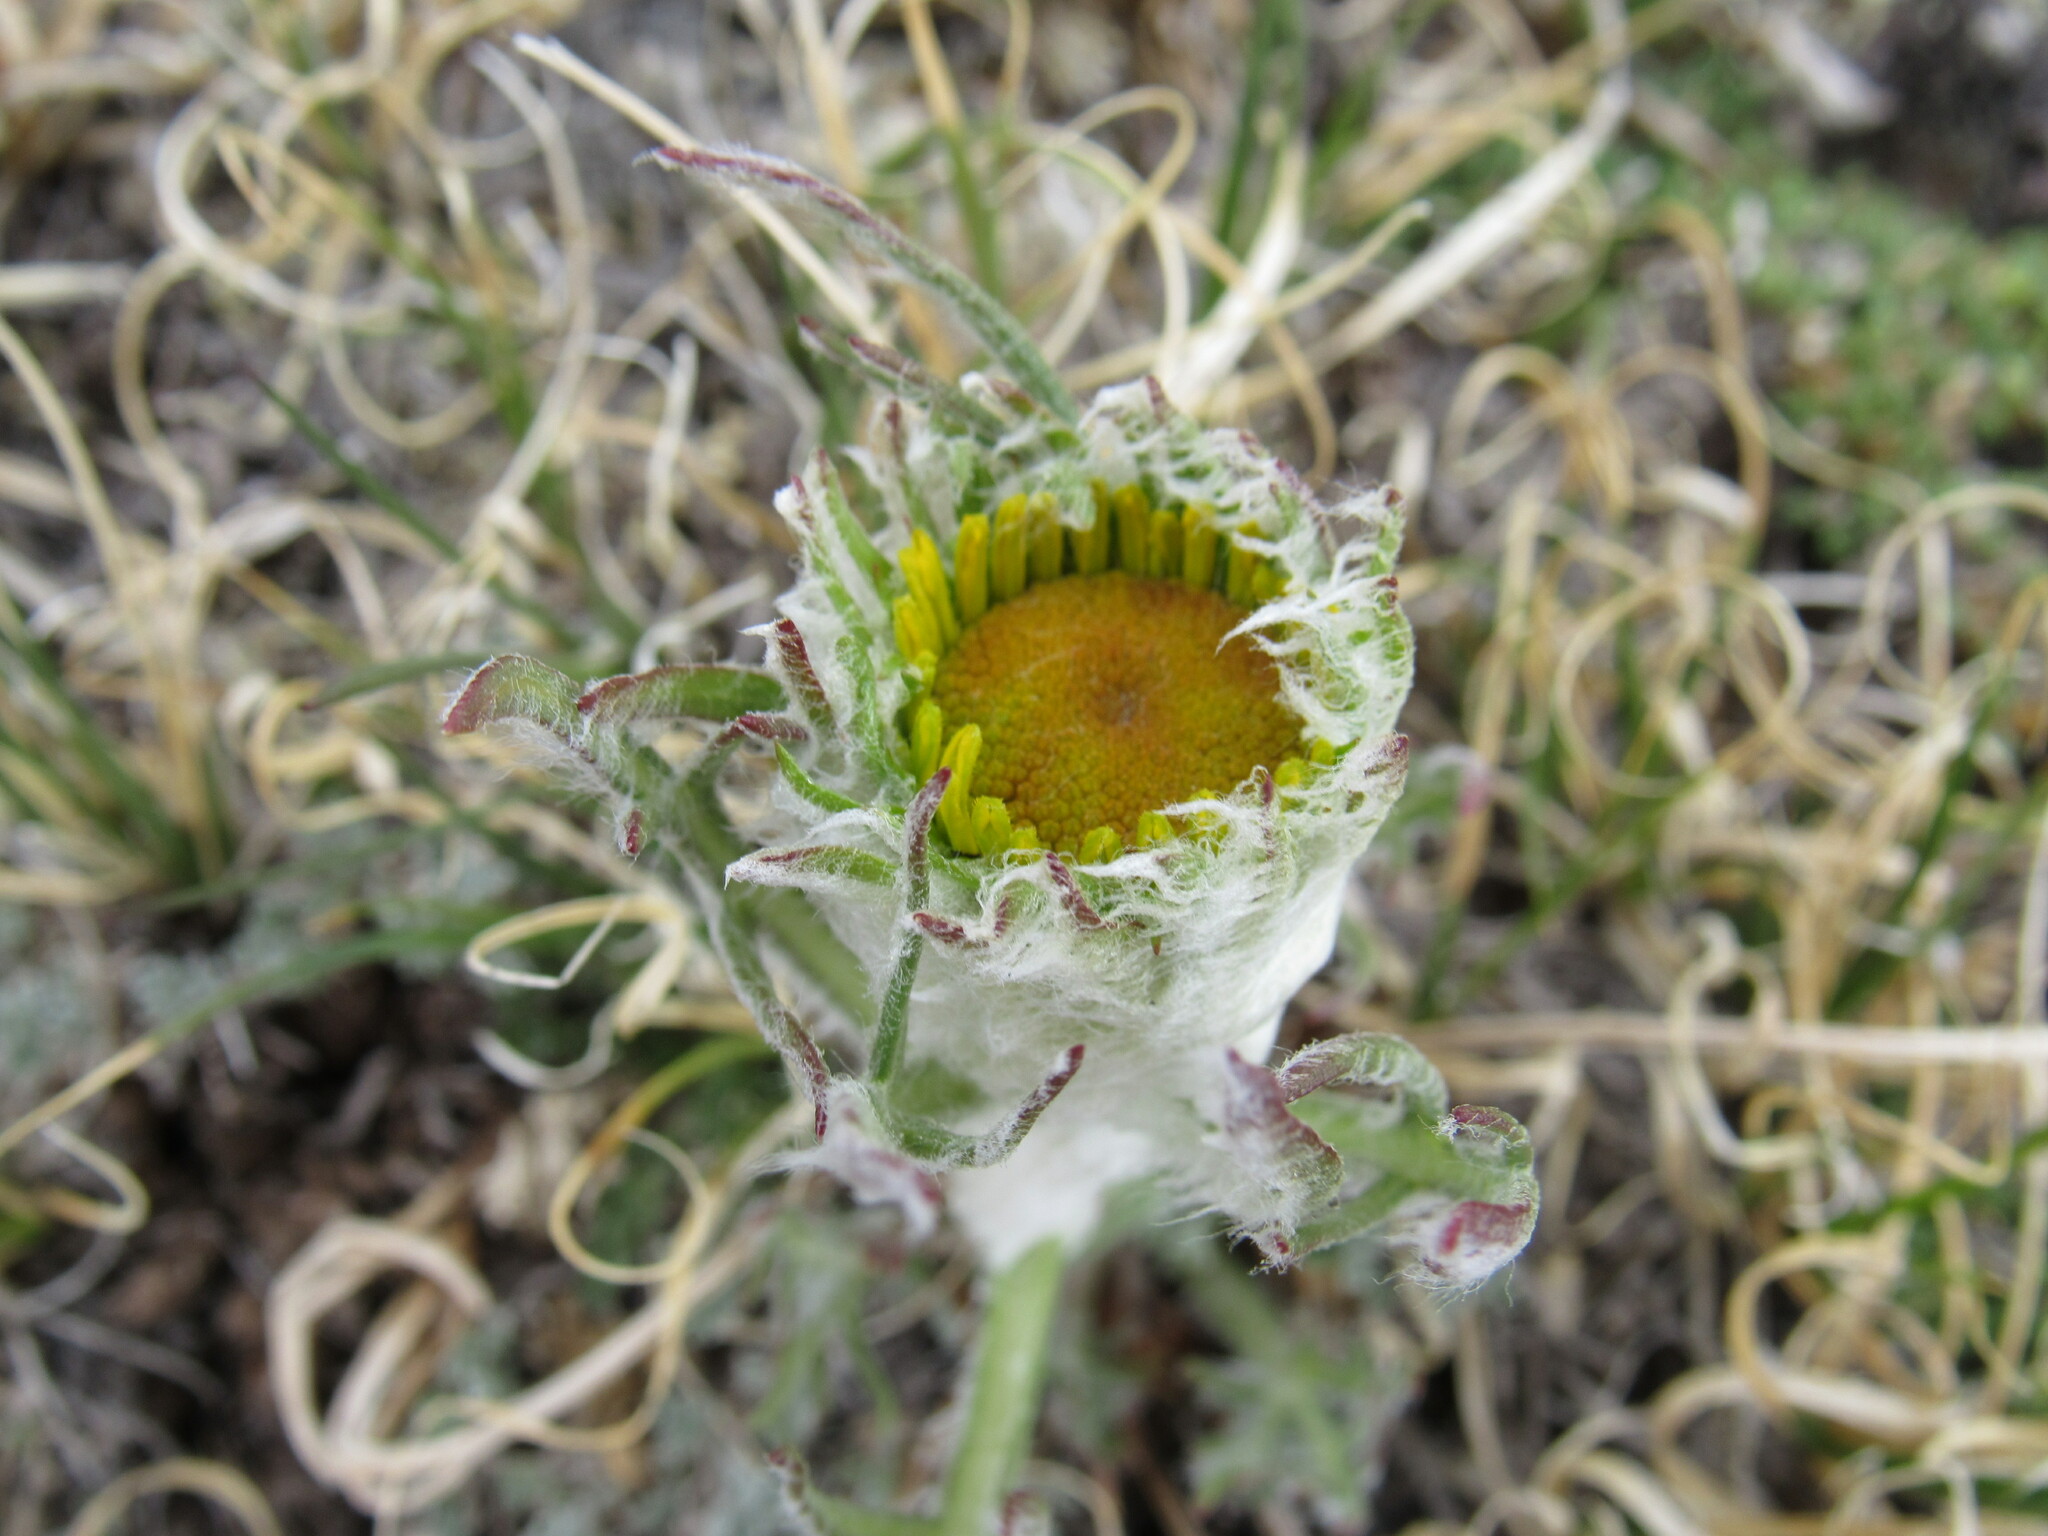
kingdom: Plantae
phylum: Tracheophyta
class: Magnoliopsida
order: Asterales
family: Asteraceae
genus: Hymenoxys
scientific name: Hymenoxys grandiflora
